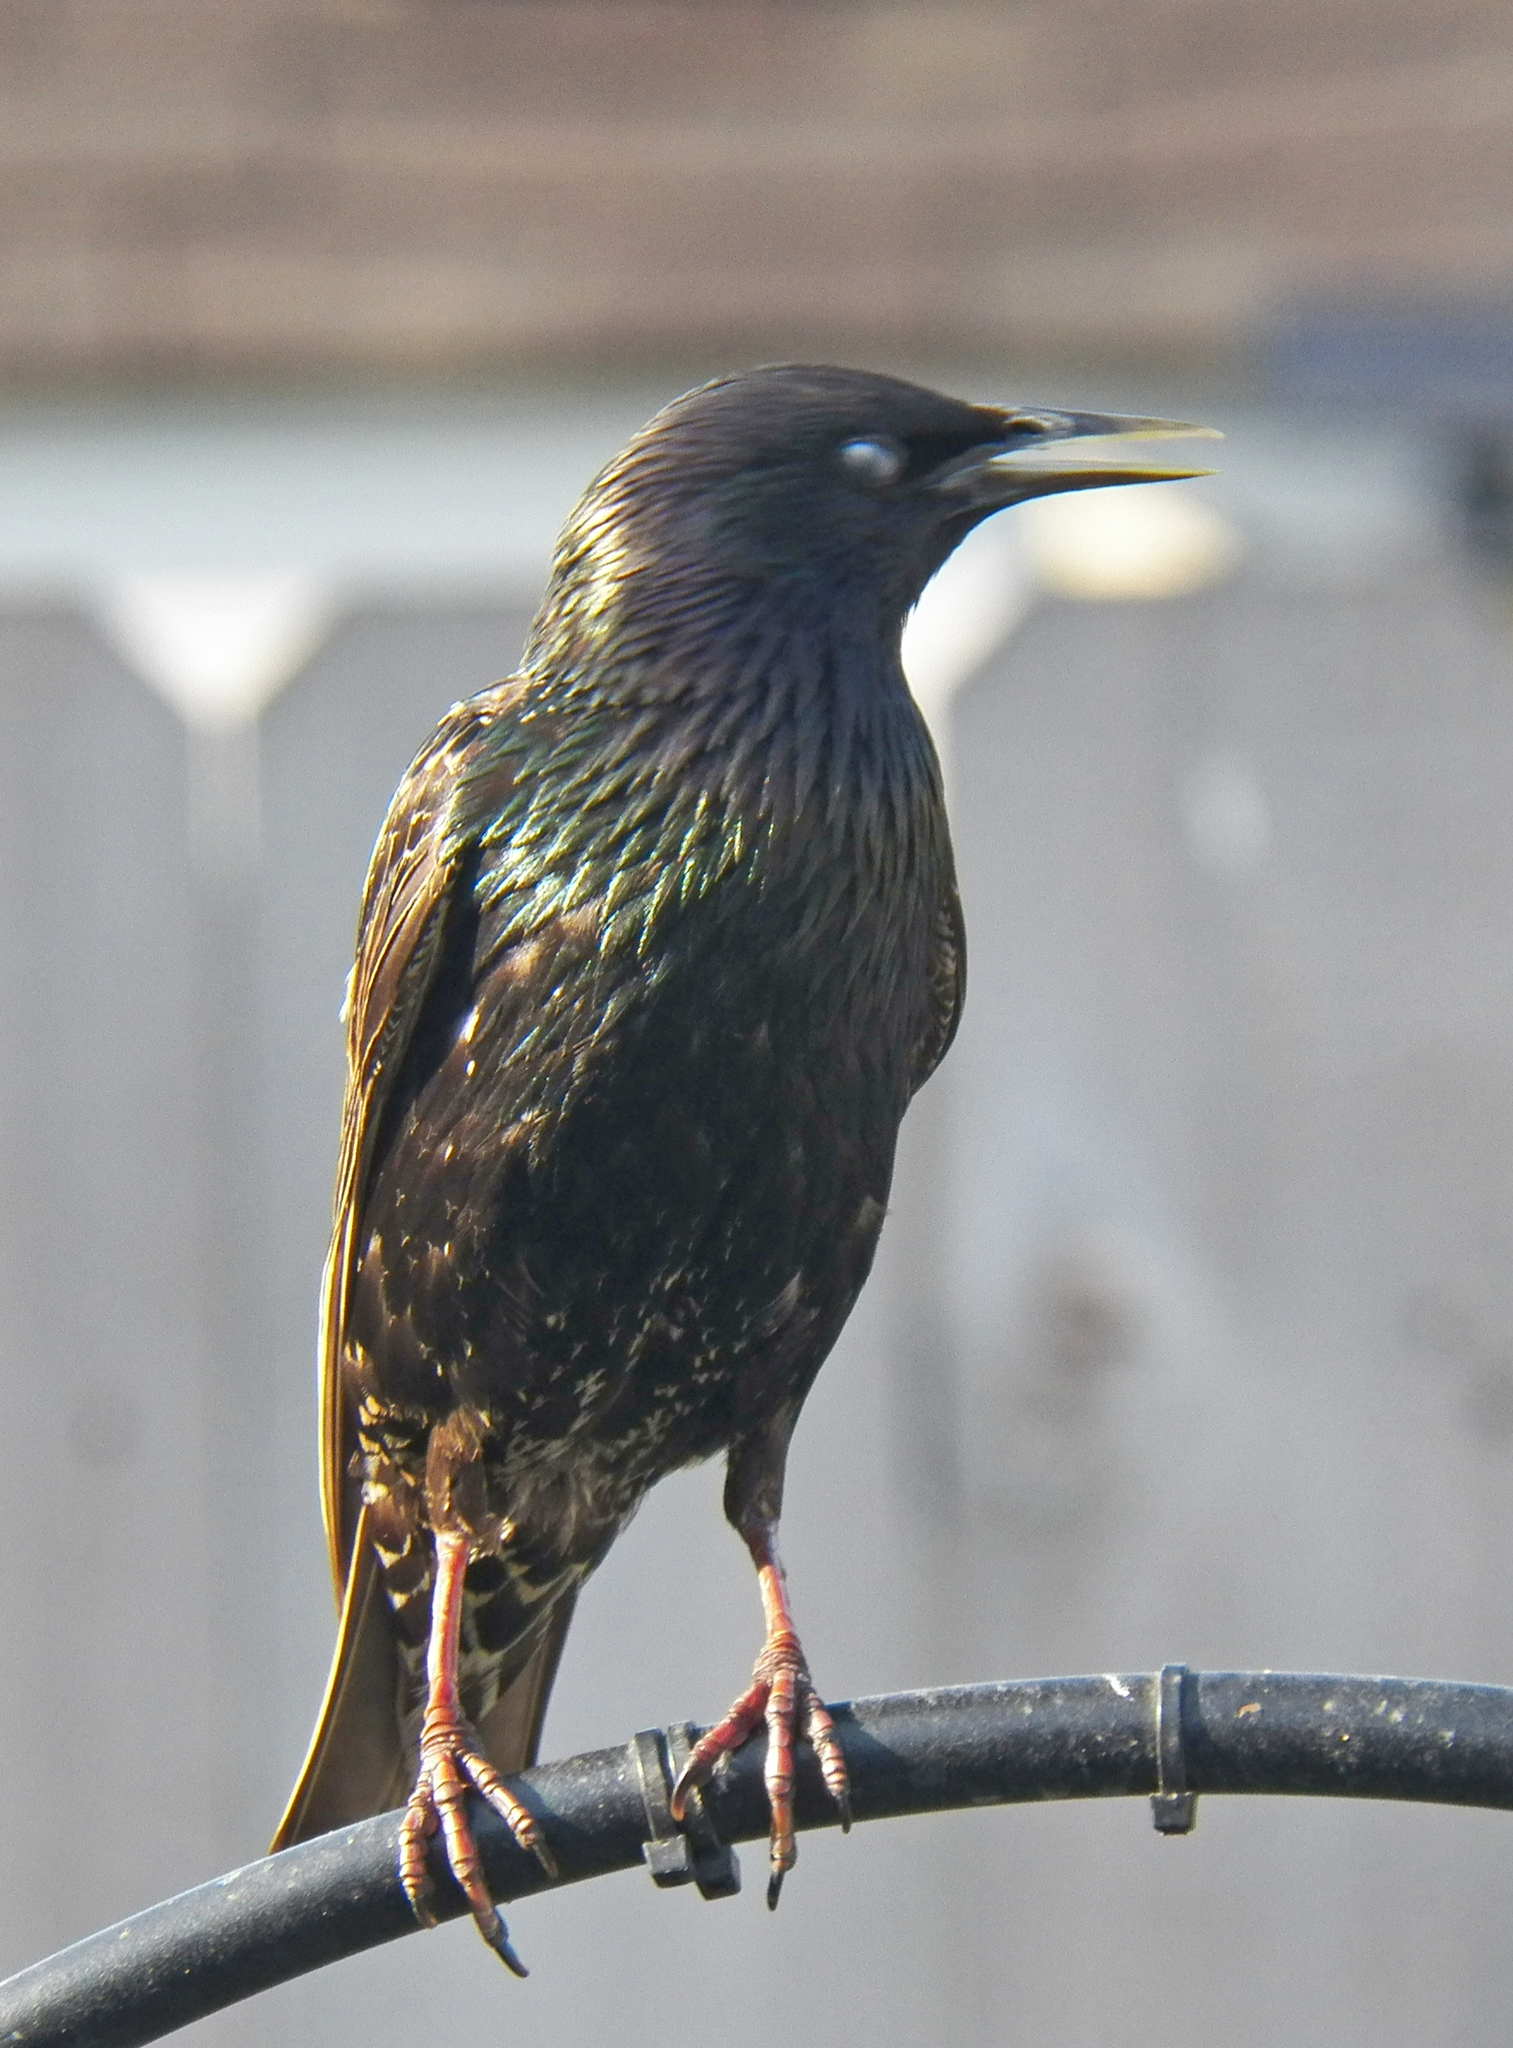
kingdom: Animalia
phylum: Chordata
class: Aves
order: Passeriformes
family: Sturnidae
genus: Sturnus
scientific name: Sturnus vulgaris
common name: Common starling
